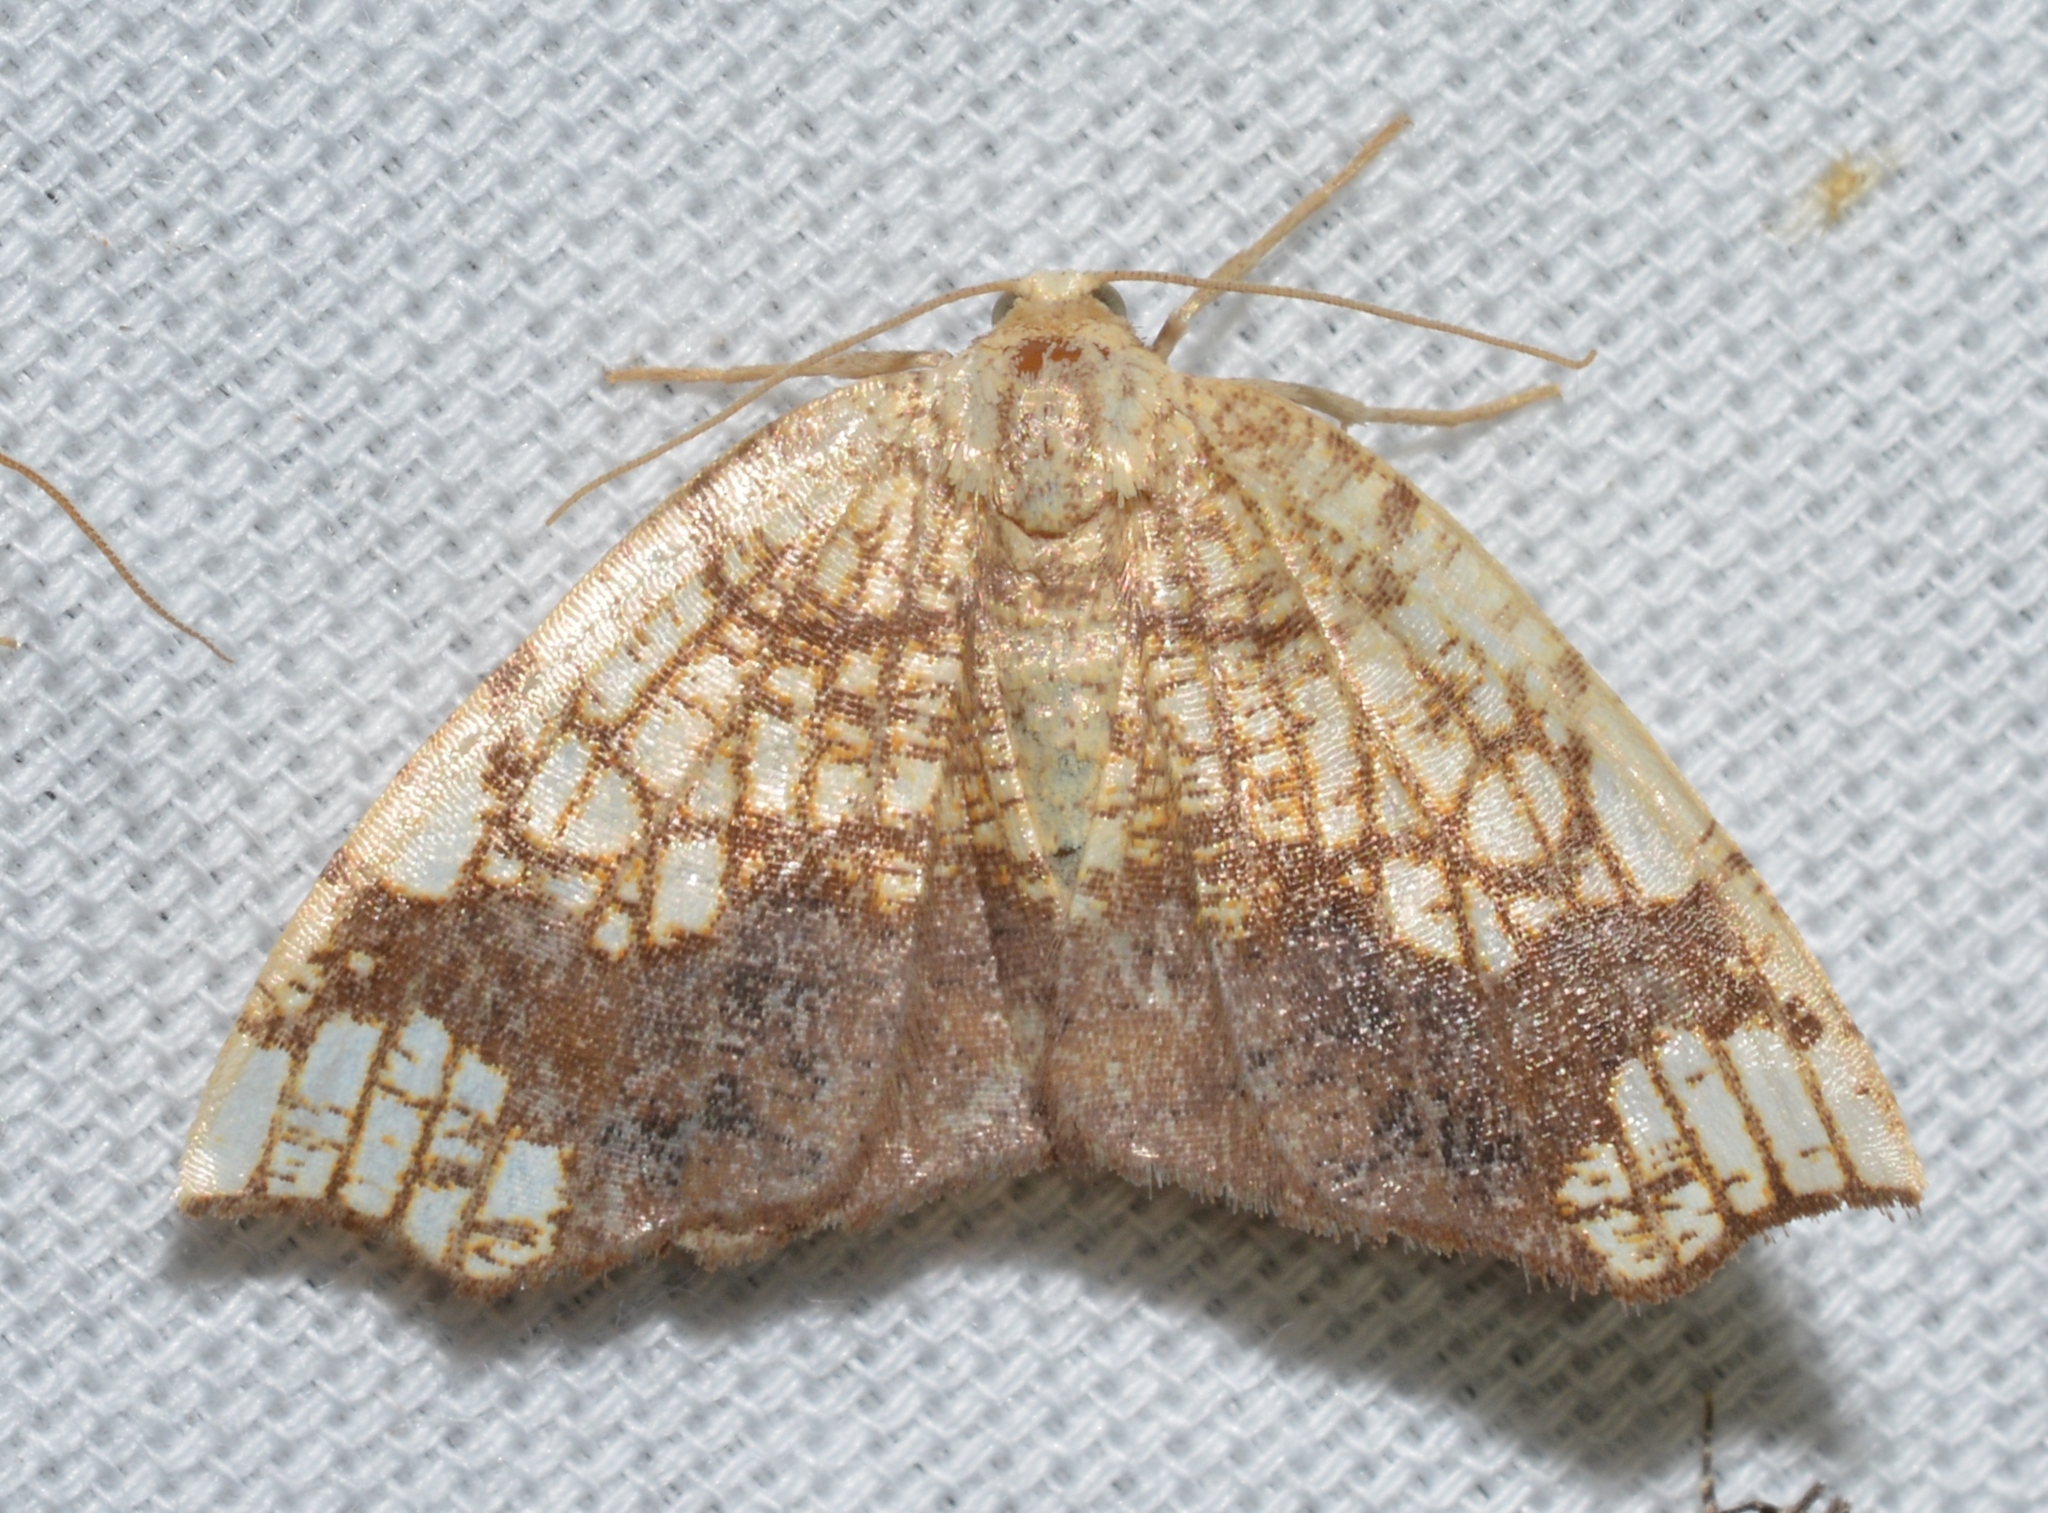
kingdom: Animalia
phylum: Arthropoda
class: Insecta
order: Lepidoptera
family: Geometridae
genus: Nematocampa
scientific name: Nematocampa resistaria
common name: Horned spanworm moth
